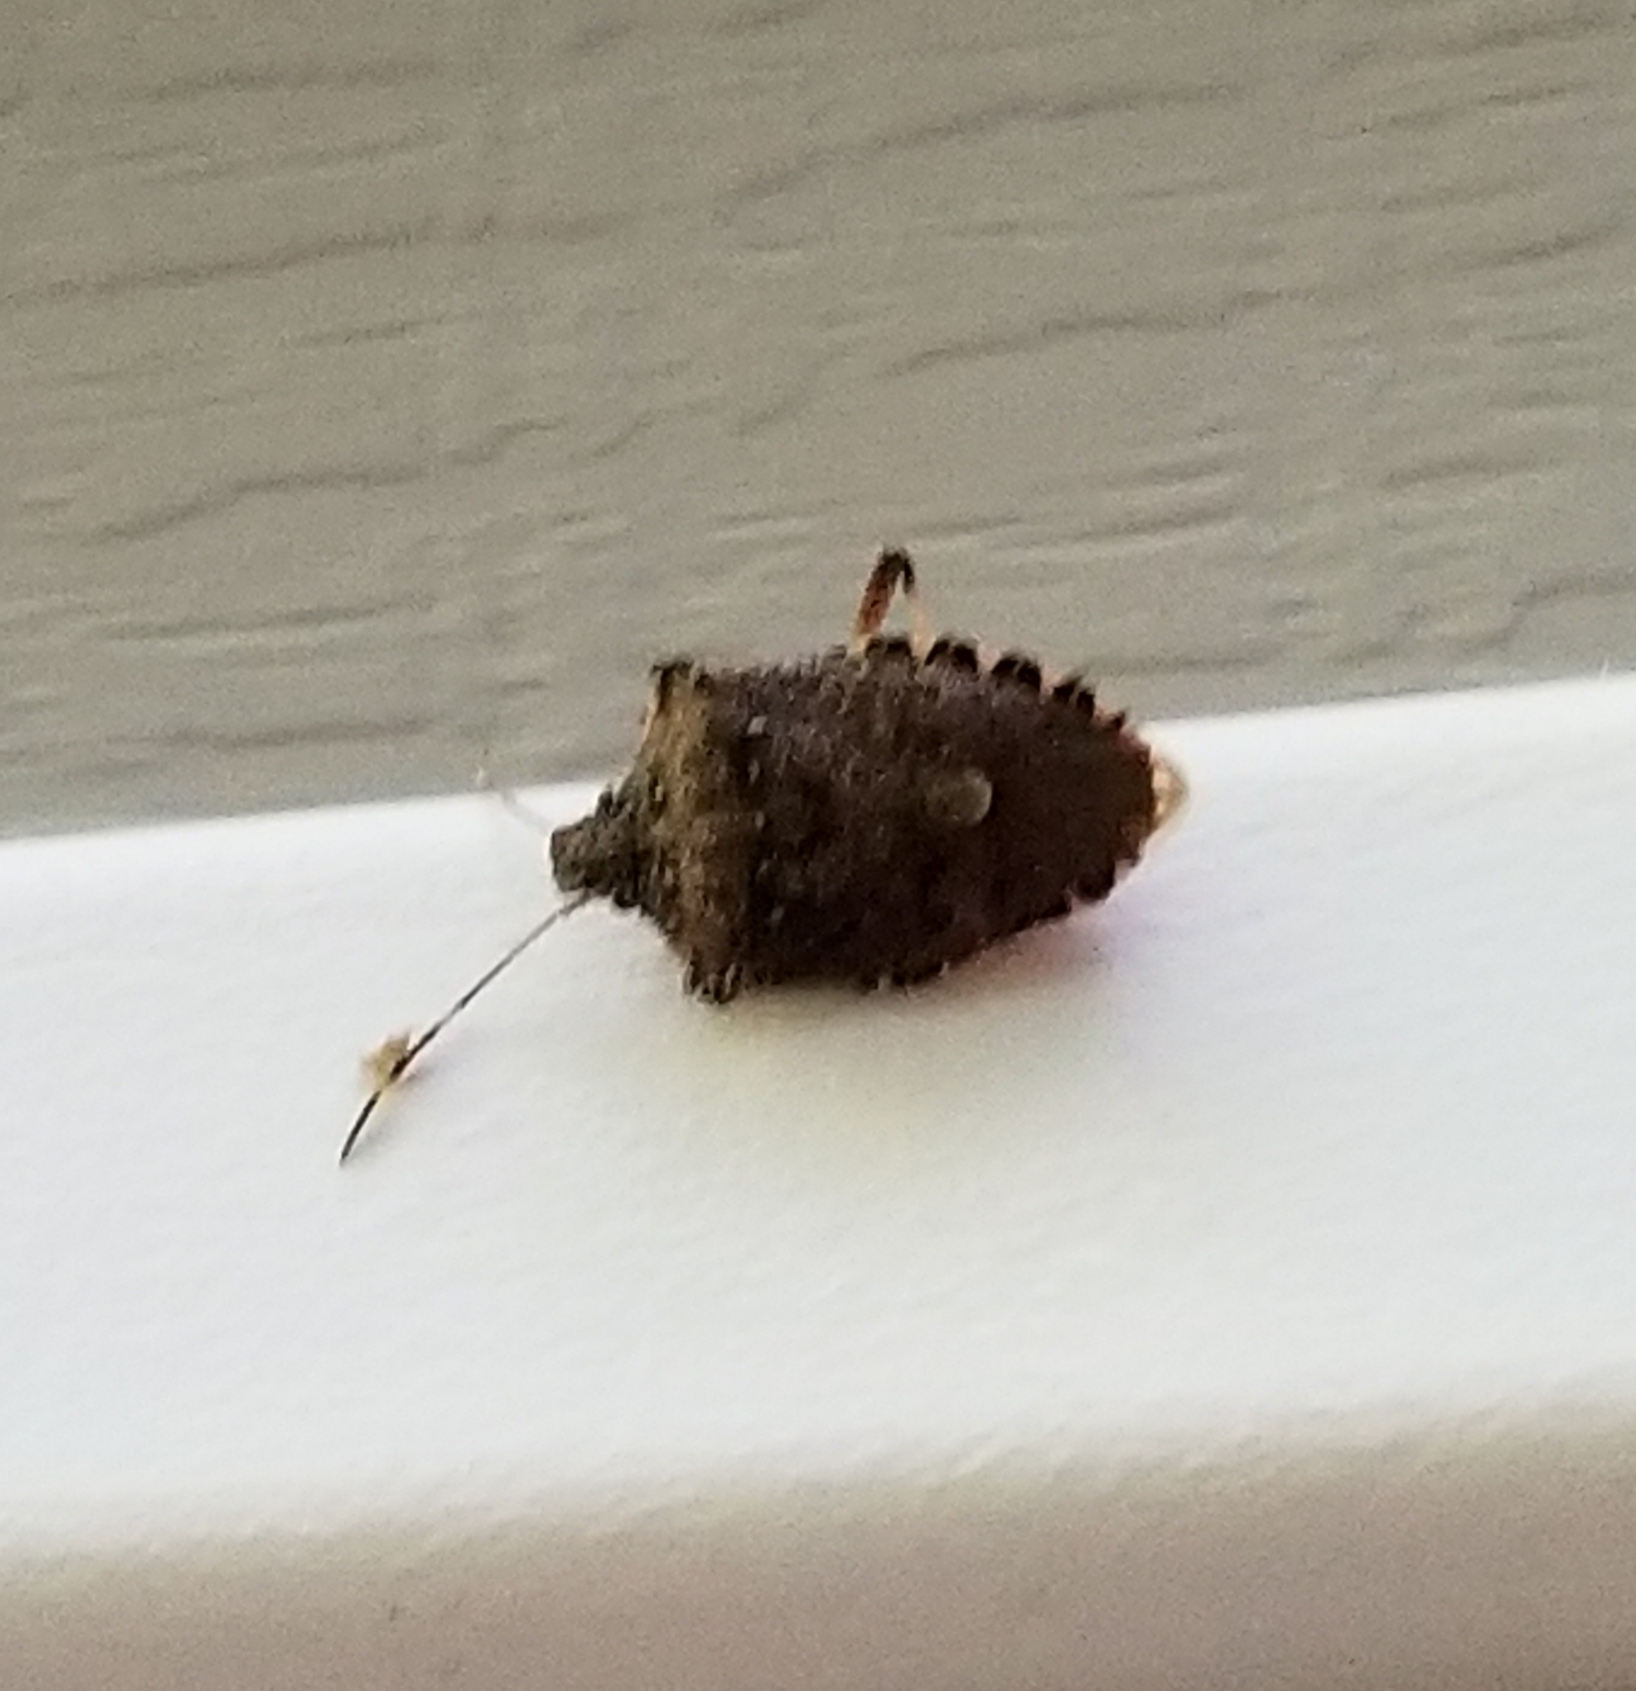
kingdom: Animalia
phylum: Arthropoda
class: Insecta
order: Hemiptera
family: Pentatomidae
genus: Halyomorpha
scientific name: Halyomorpha halys
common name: Brown marmorated stink bug
